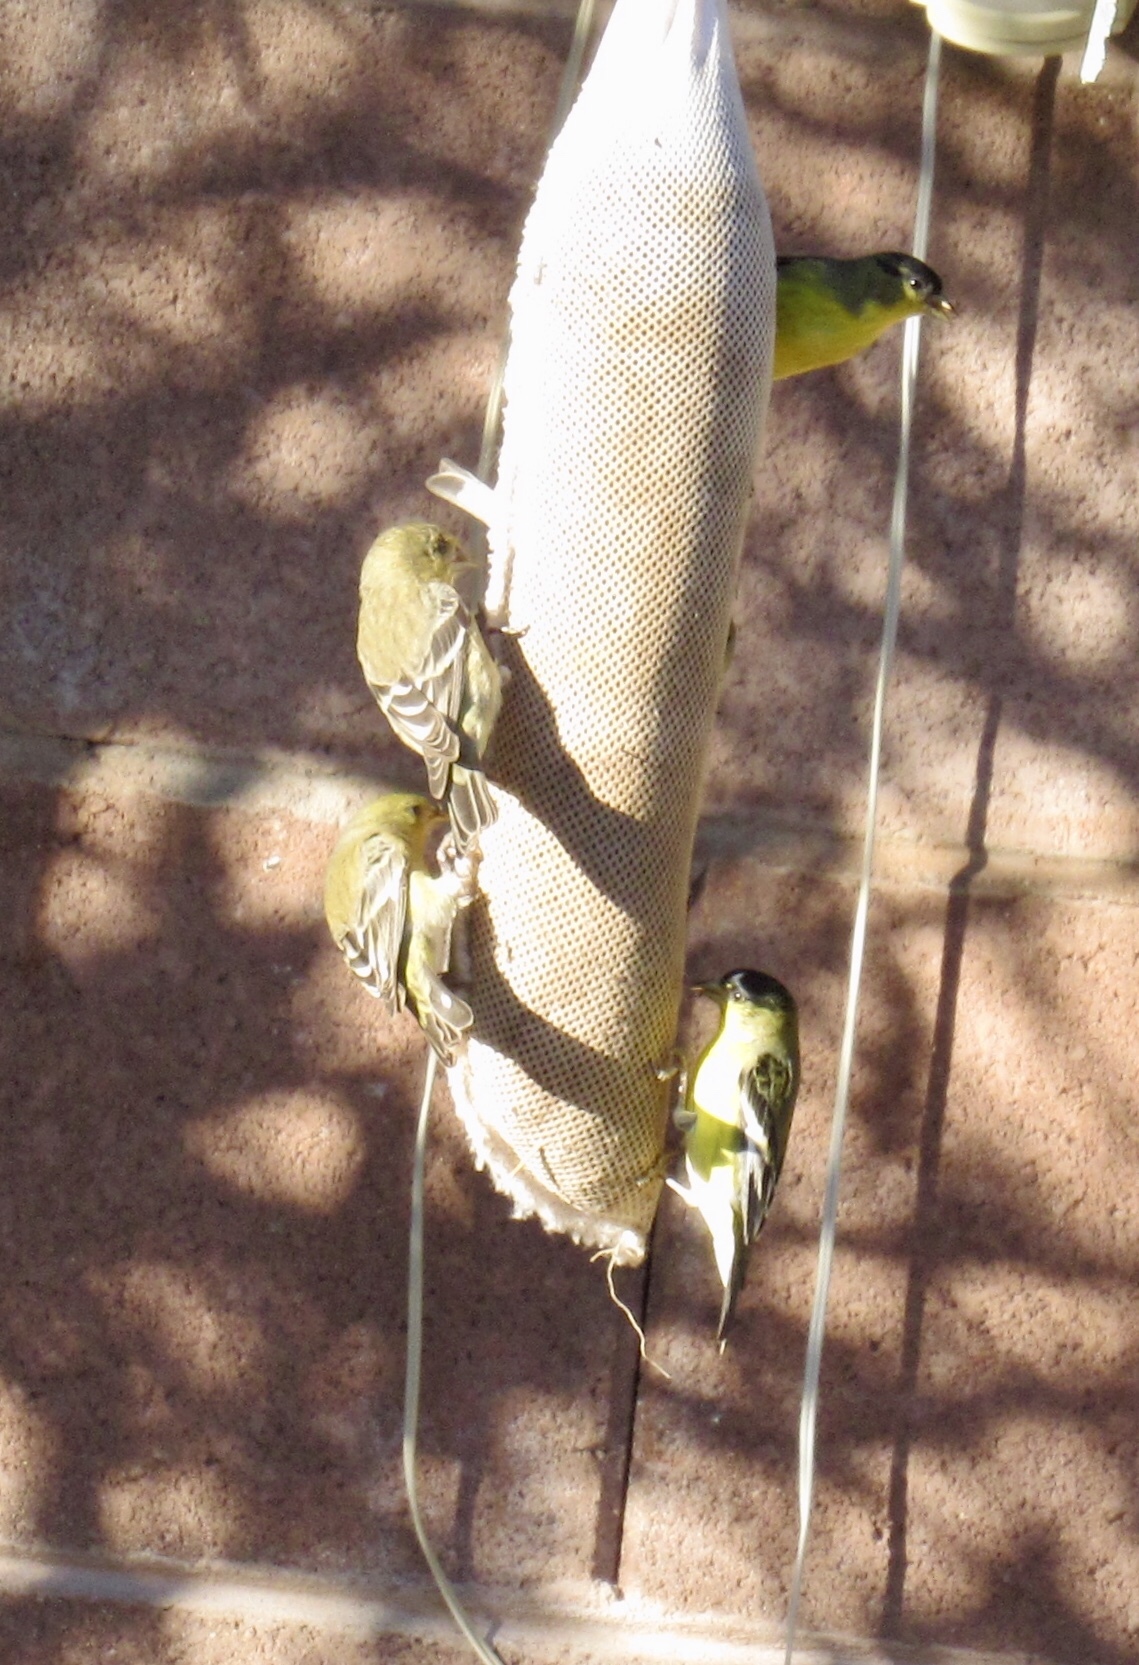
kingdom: Animalia
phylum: Chordata
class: Aves
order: Passeriformes
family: Fringillidae
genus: Spinus
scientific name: Spinus psaltria
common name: Lesser goldfinch
